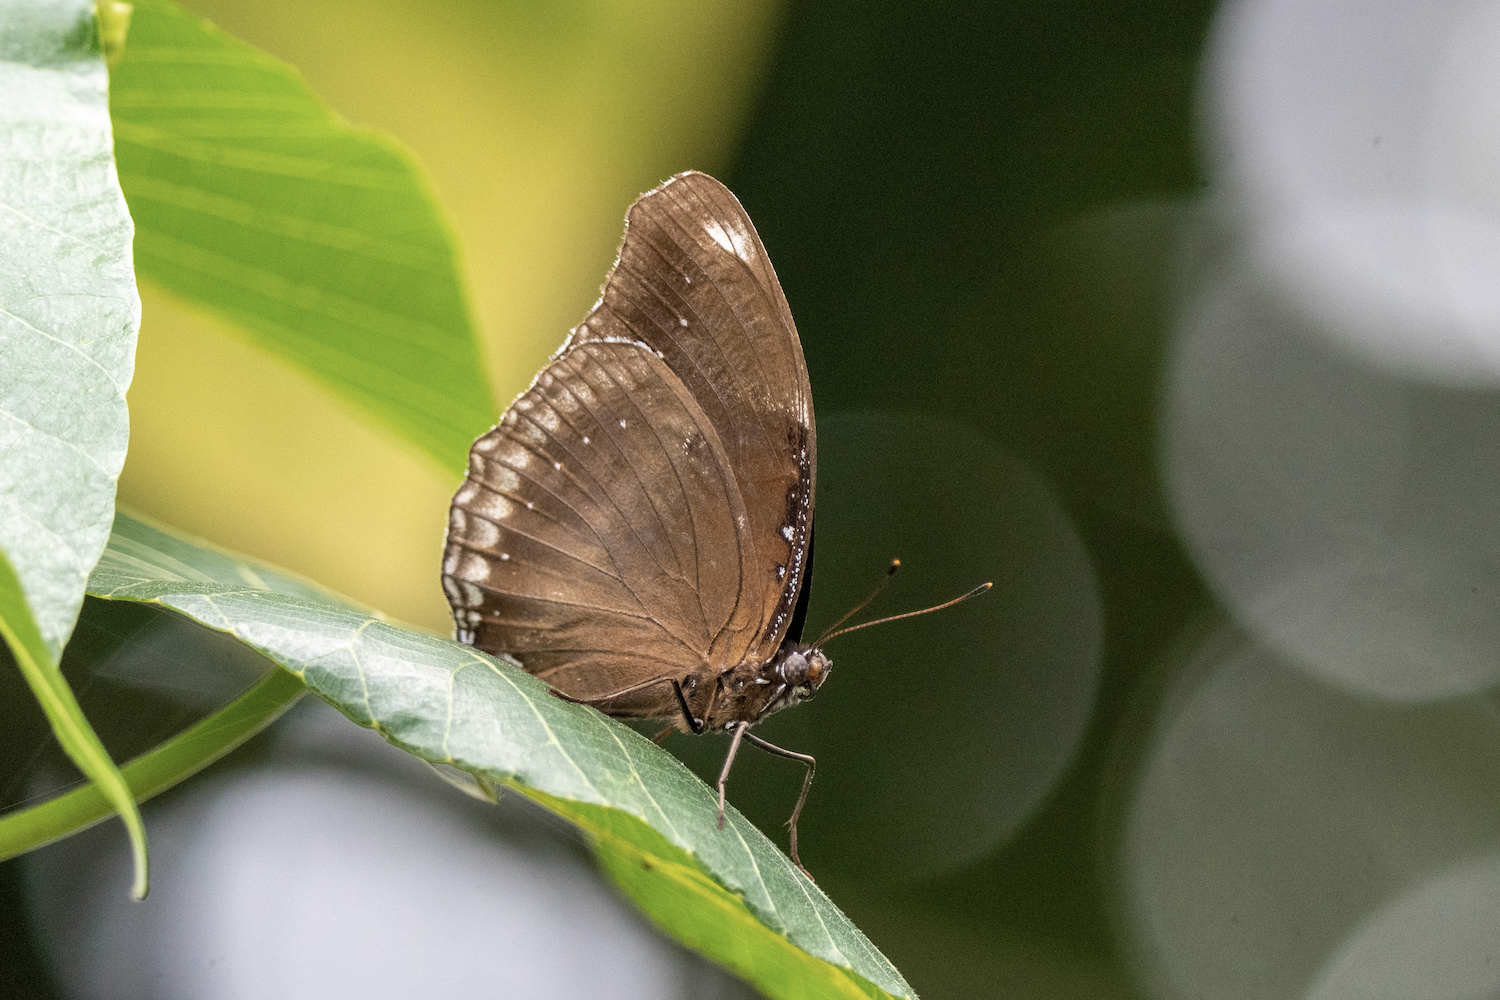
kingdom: Animalia
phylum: Arthropoda
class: Insecta
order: Lepidoptera
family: Nymphalidae
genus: Hypolimnas
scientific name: Hypolimnas bolina
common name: Great eggfly
